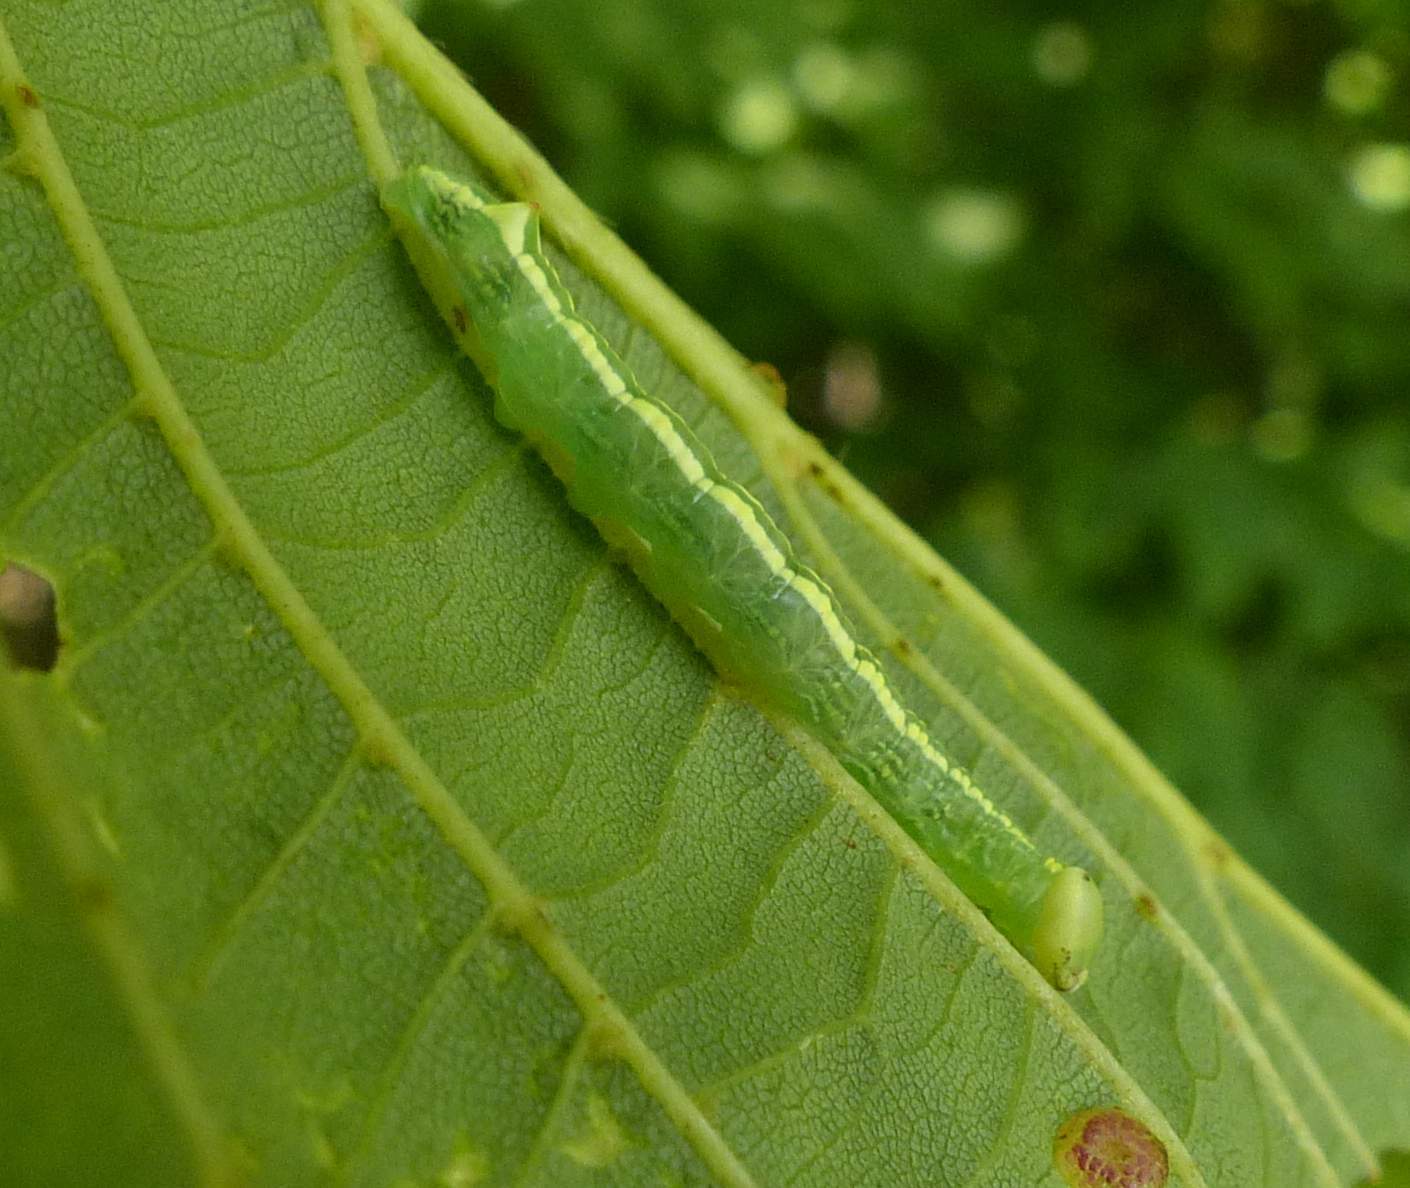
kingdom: Animalia
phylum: Arthropoda
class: Insecta
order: Lepidoptera
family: Notodontidae
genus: Ellida
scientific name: Ellida caniplaga
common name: Linden prominent
